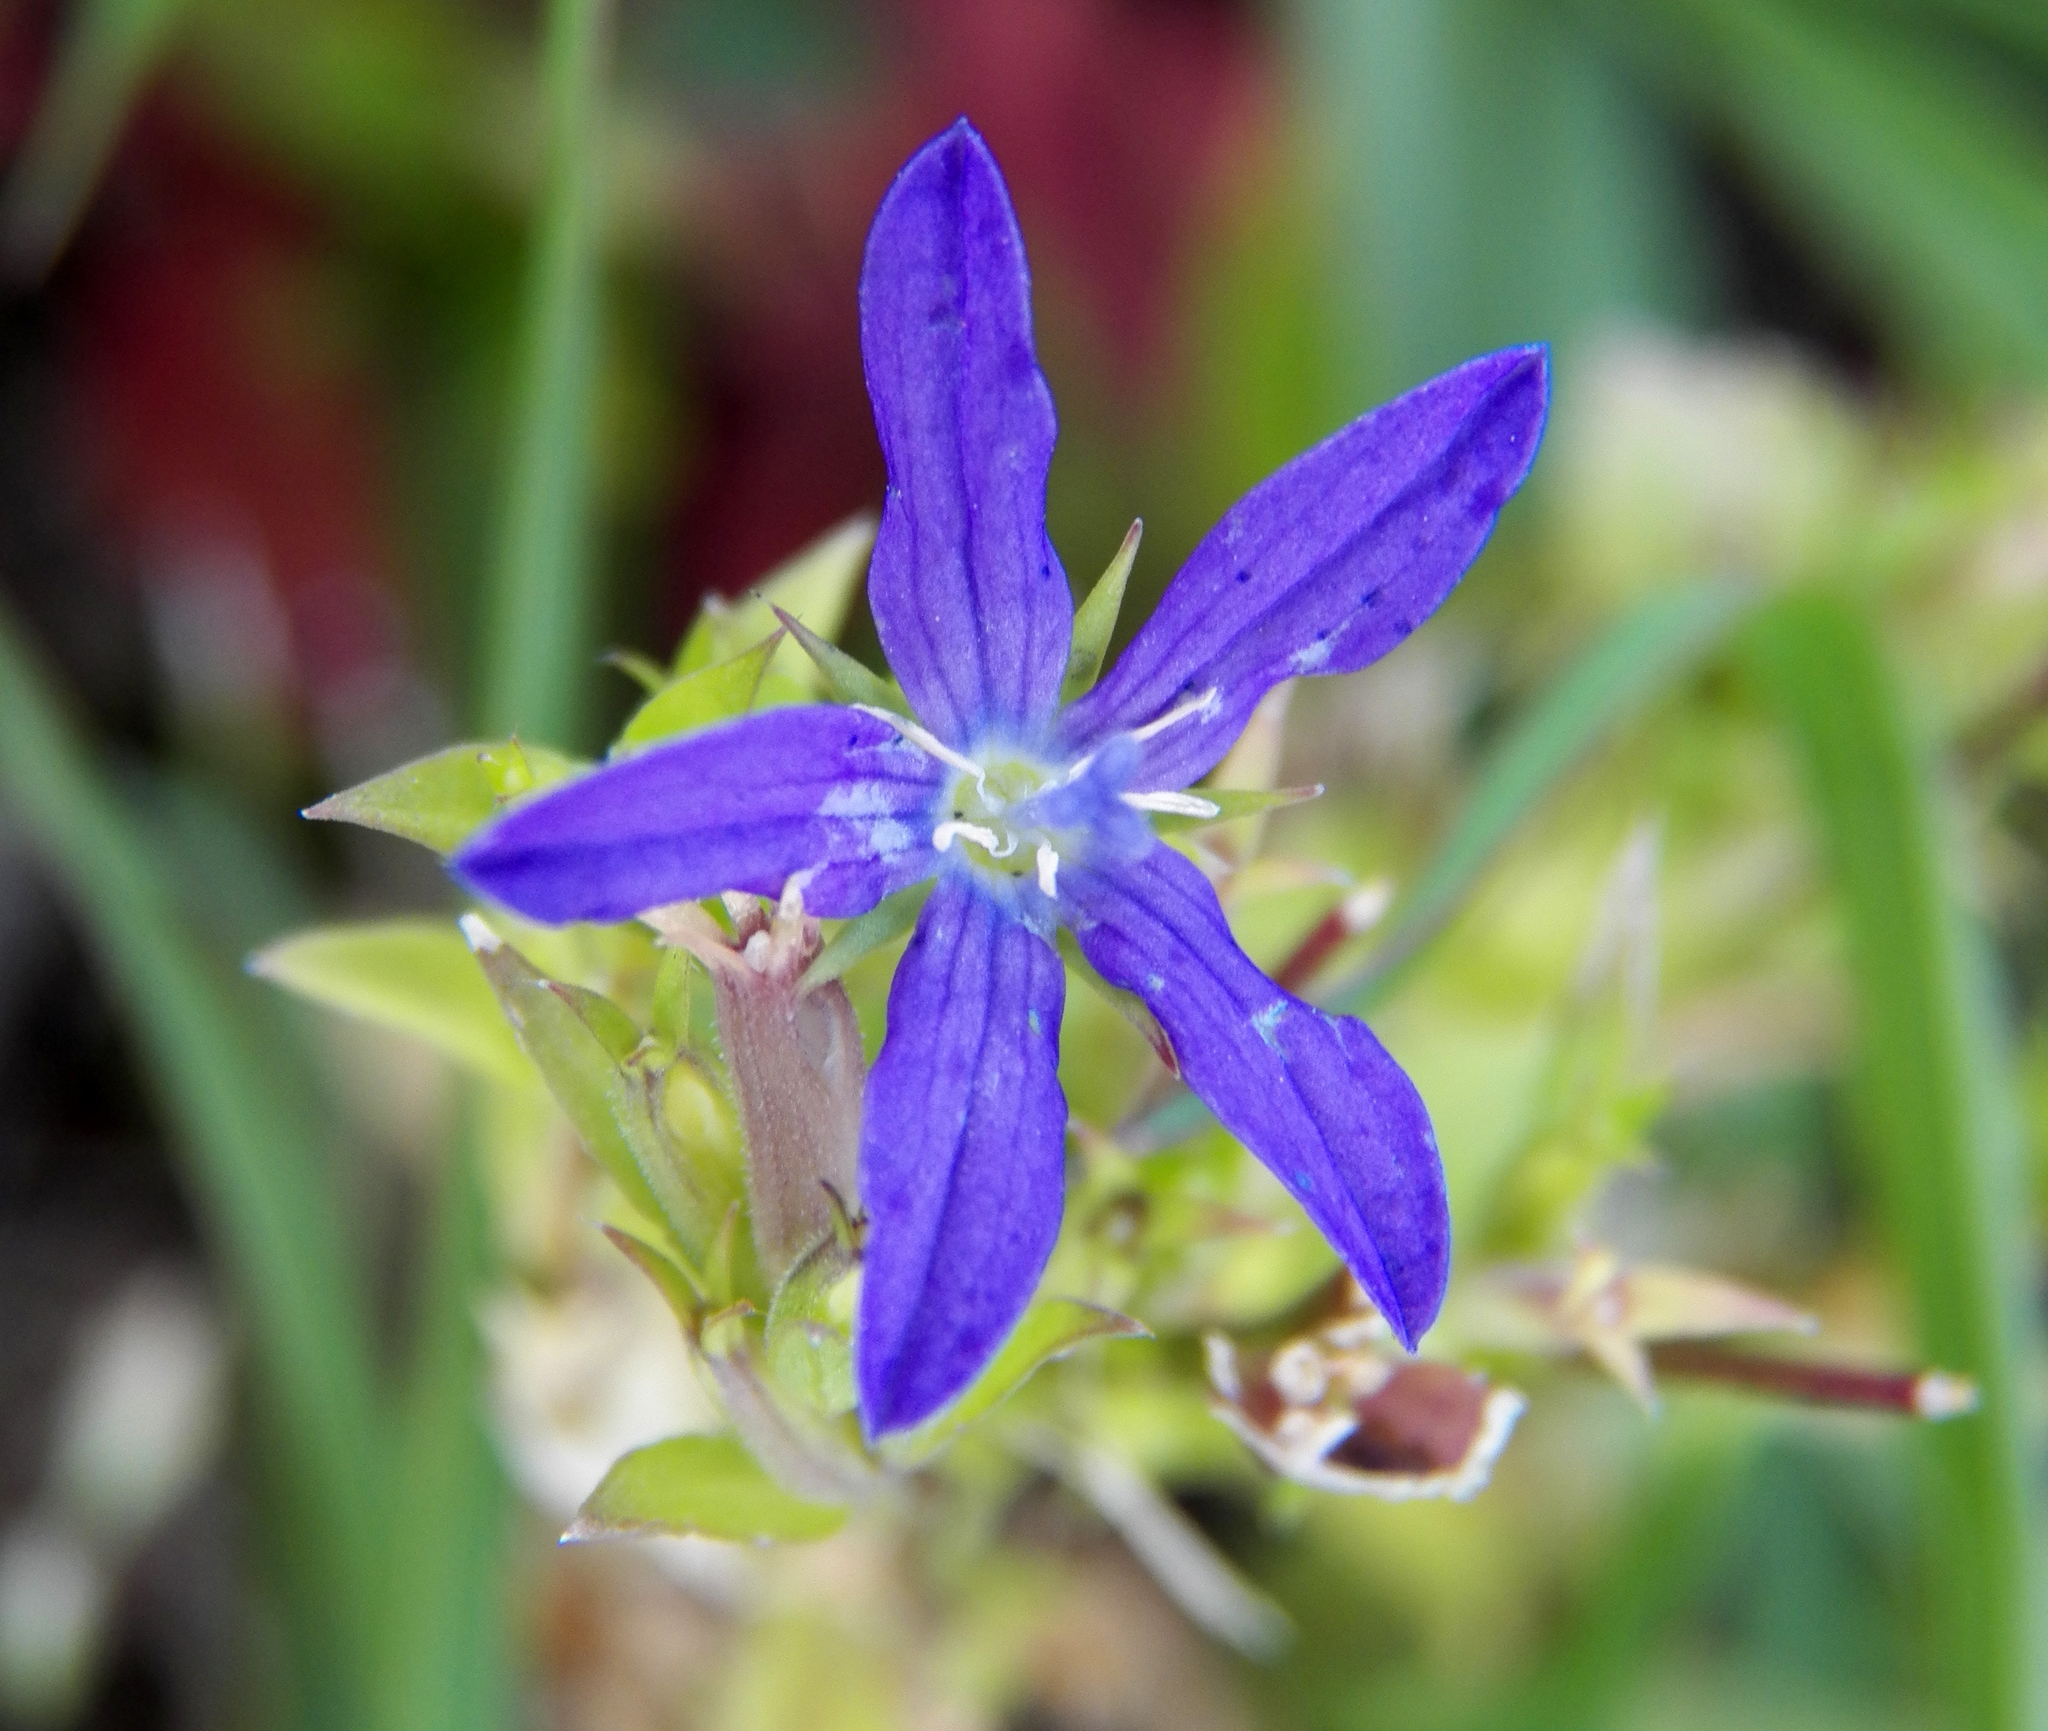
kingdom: Plantae
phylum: Tracheophyta
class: Magnoliopsida
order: Asterales
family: Campanulaceae
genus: Triodanis
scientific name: Triodanis perfoliata
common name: Clasping venus' looking-glass
